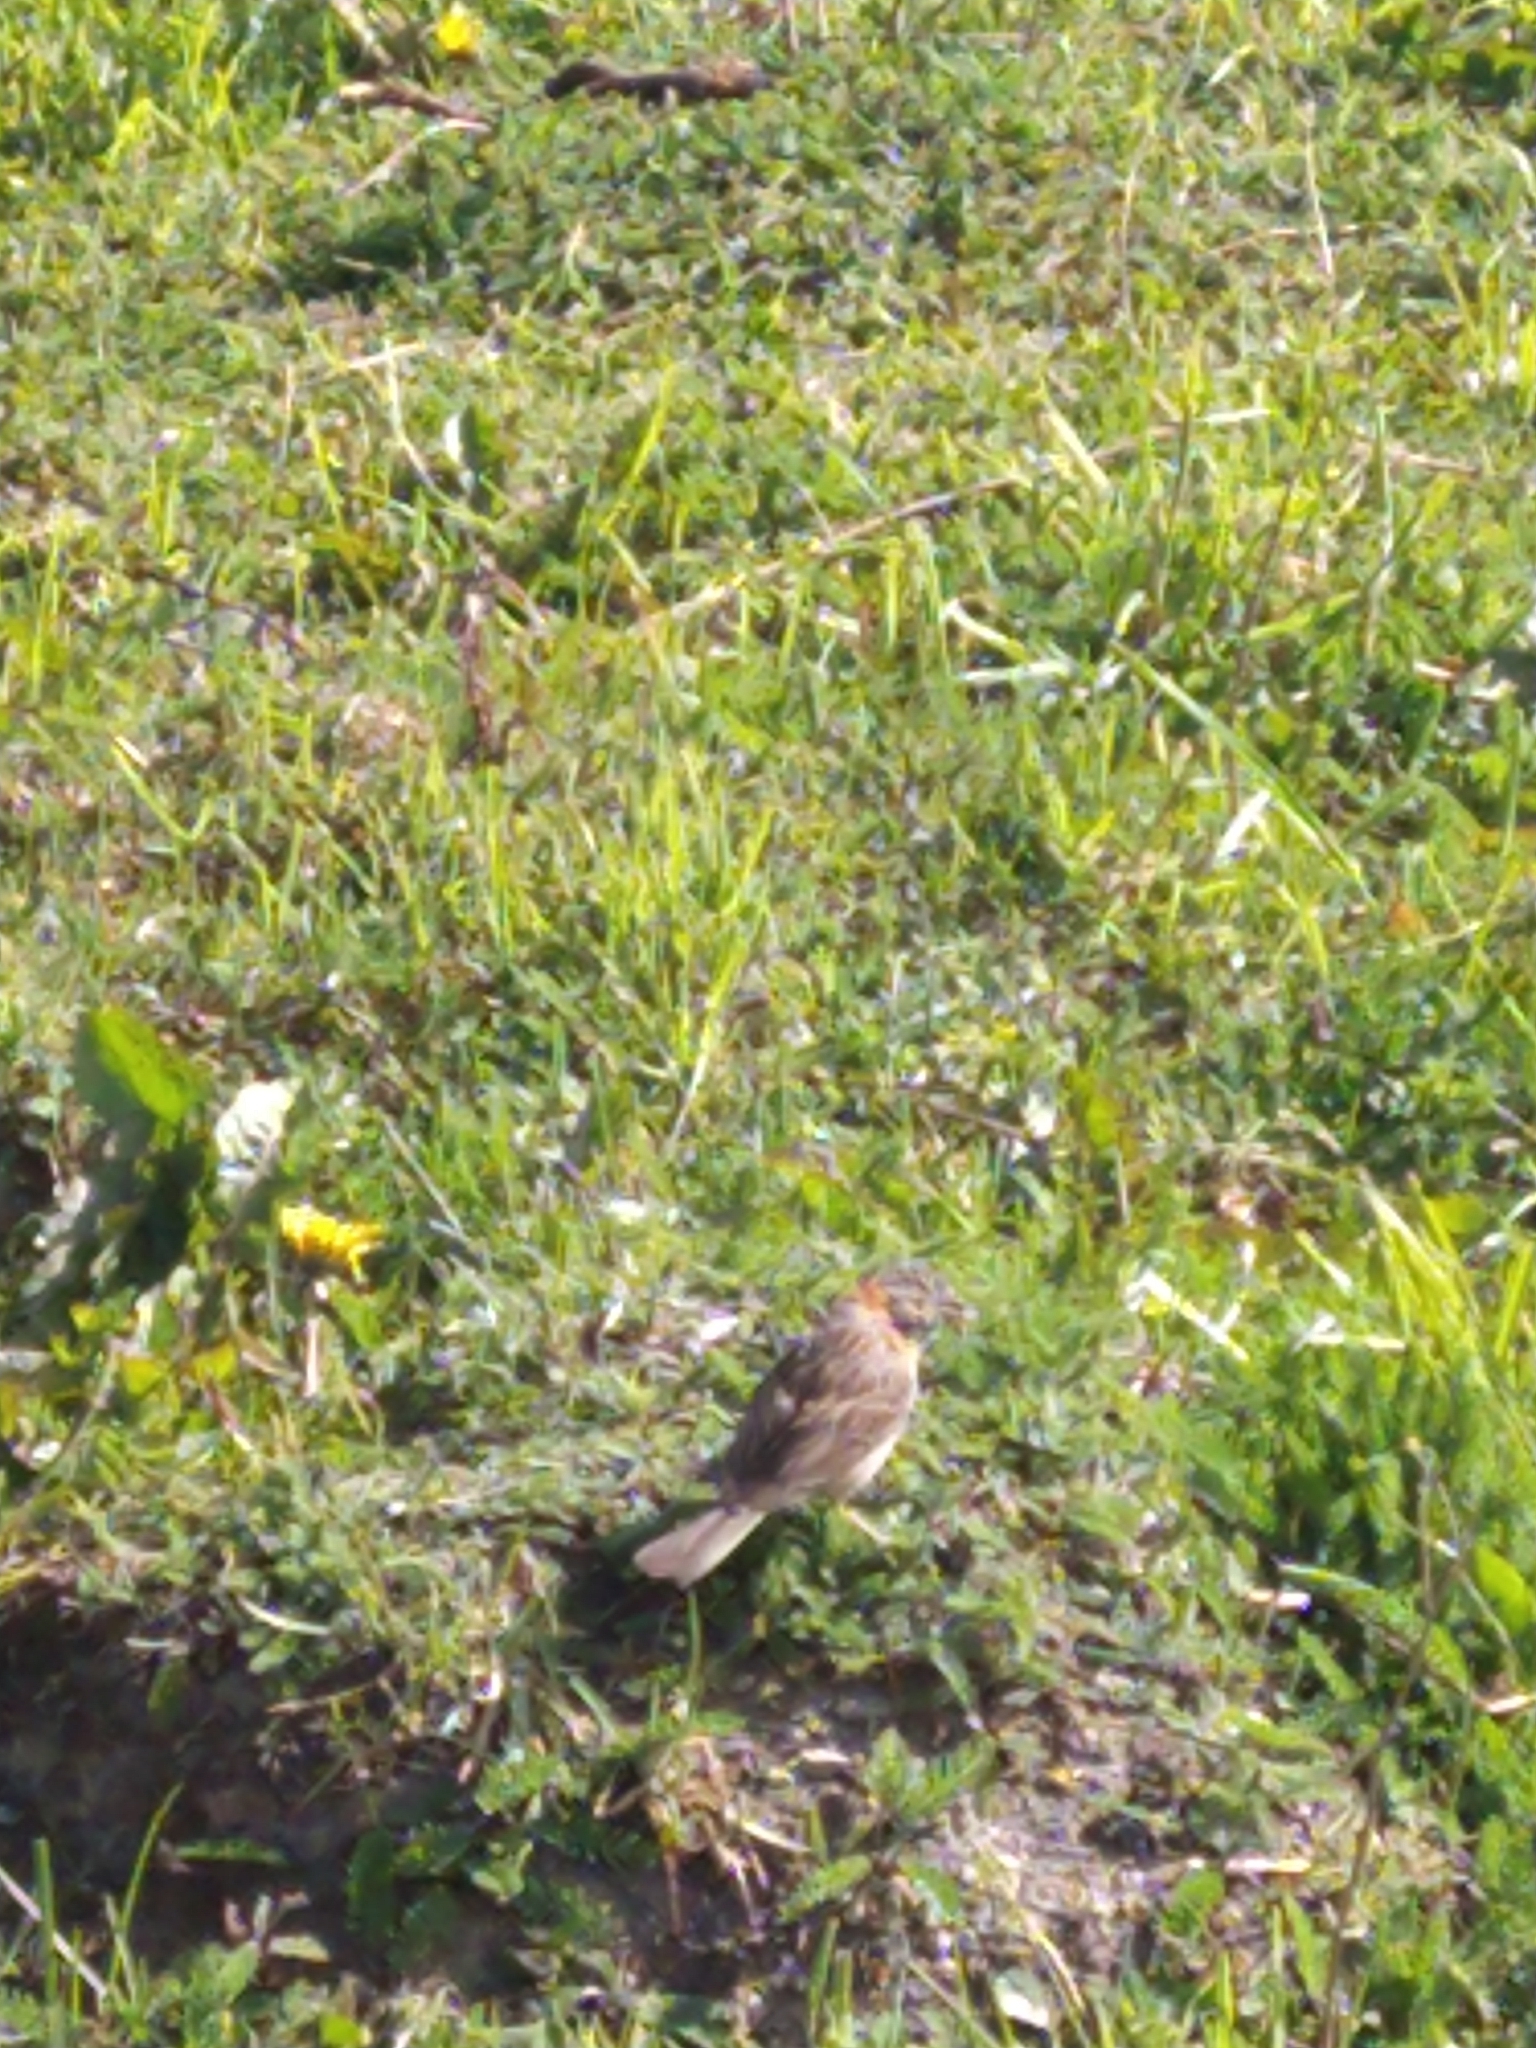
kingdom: Animalia
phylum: Chordata
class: Aves
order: Passeriformes
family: Passerellidae
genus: Zonotrichia
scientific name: Zonotrichia capensis
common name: Rufous-collared sparrow
